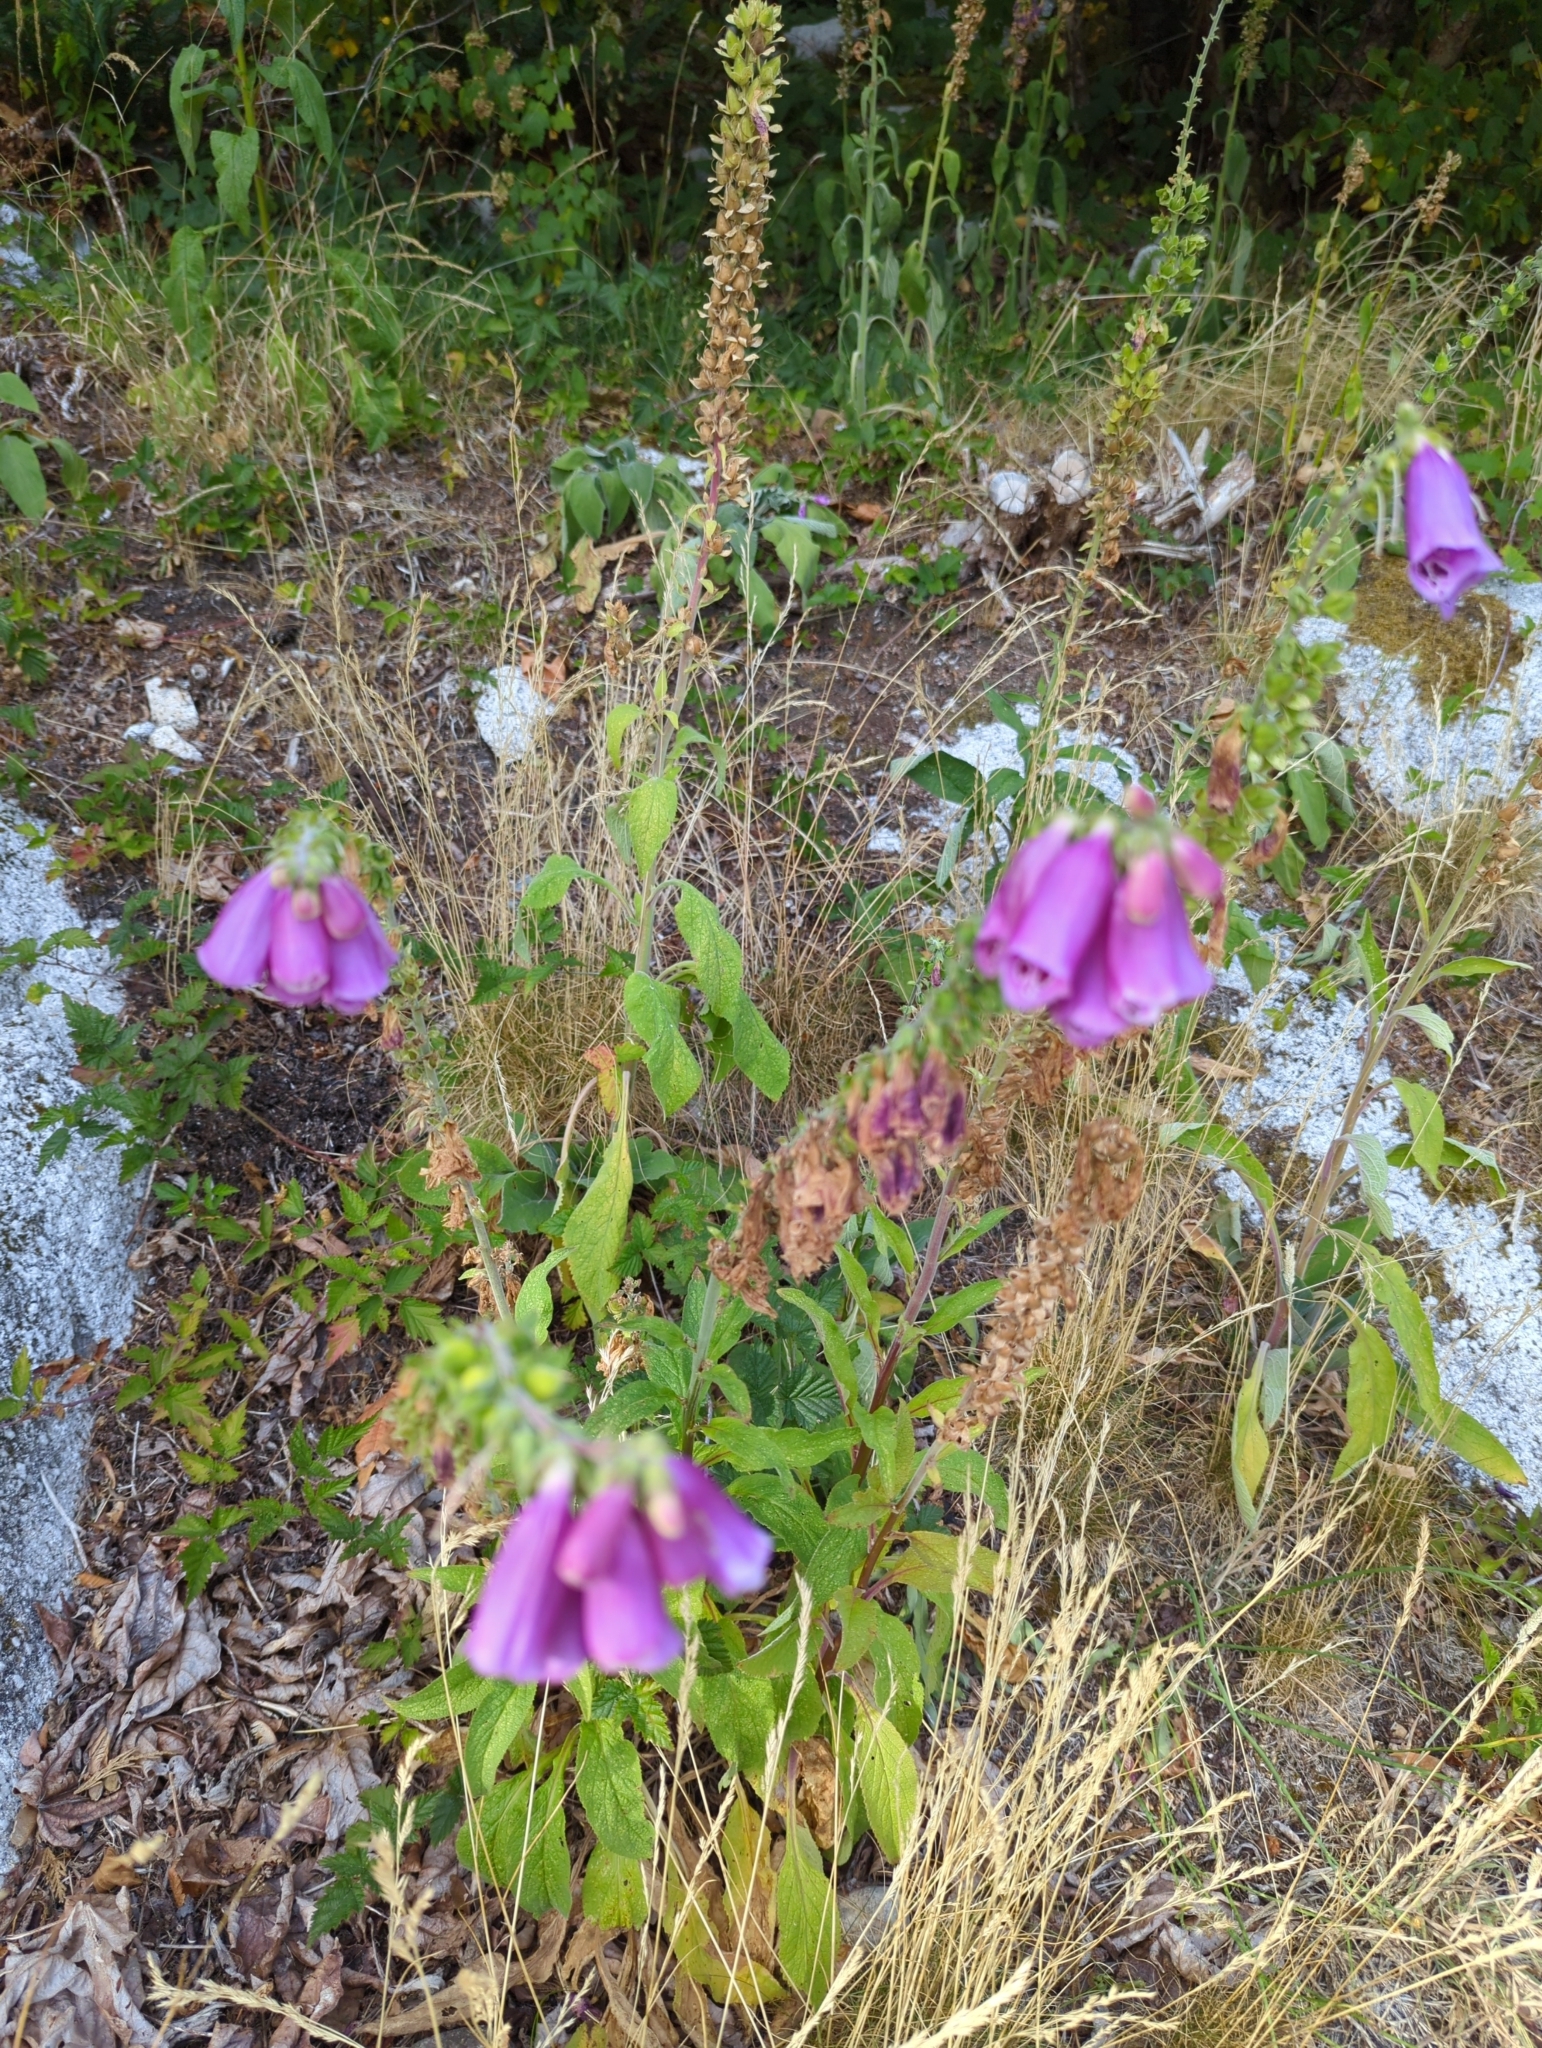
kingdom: Plantae
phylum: Tracheophyta
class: Magnoliopsida
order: Lamiales
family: Plantaginaceae
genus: Digitalis
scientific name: Digitalis purpurea
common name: Foxglove
